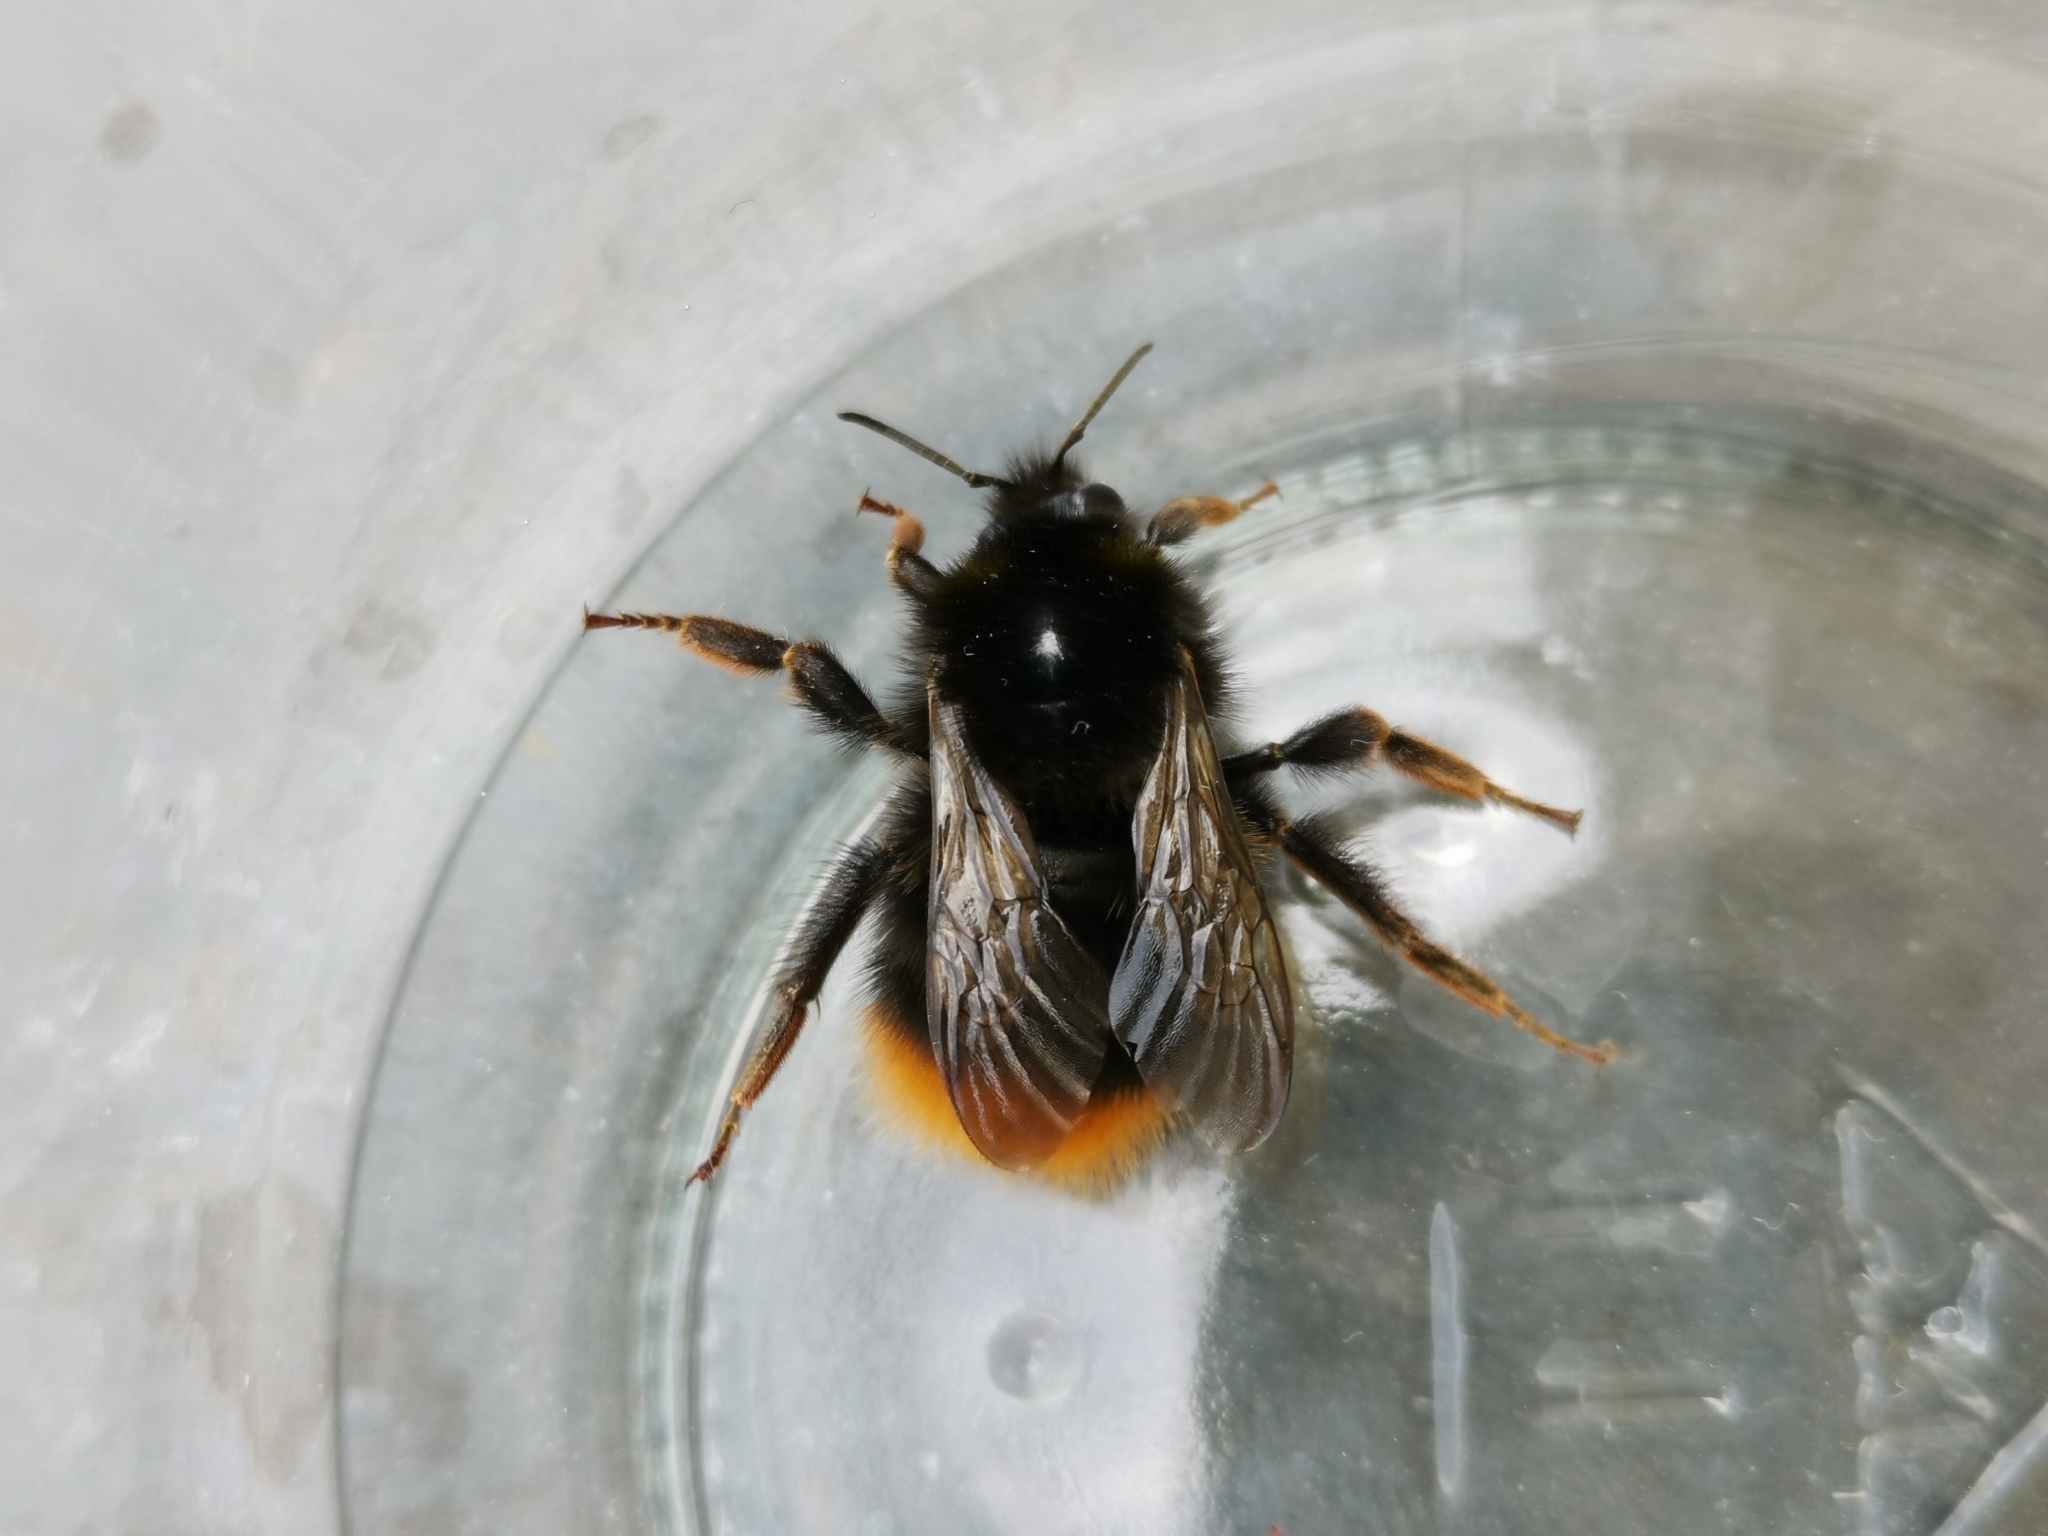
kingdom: Animalia
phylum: Arthropoda
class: Insecta
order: Hymenoptera
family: Apidae
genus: Bombus
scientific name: Bombus lapidarius
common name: Large red-tailed humble-bee
